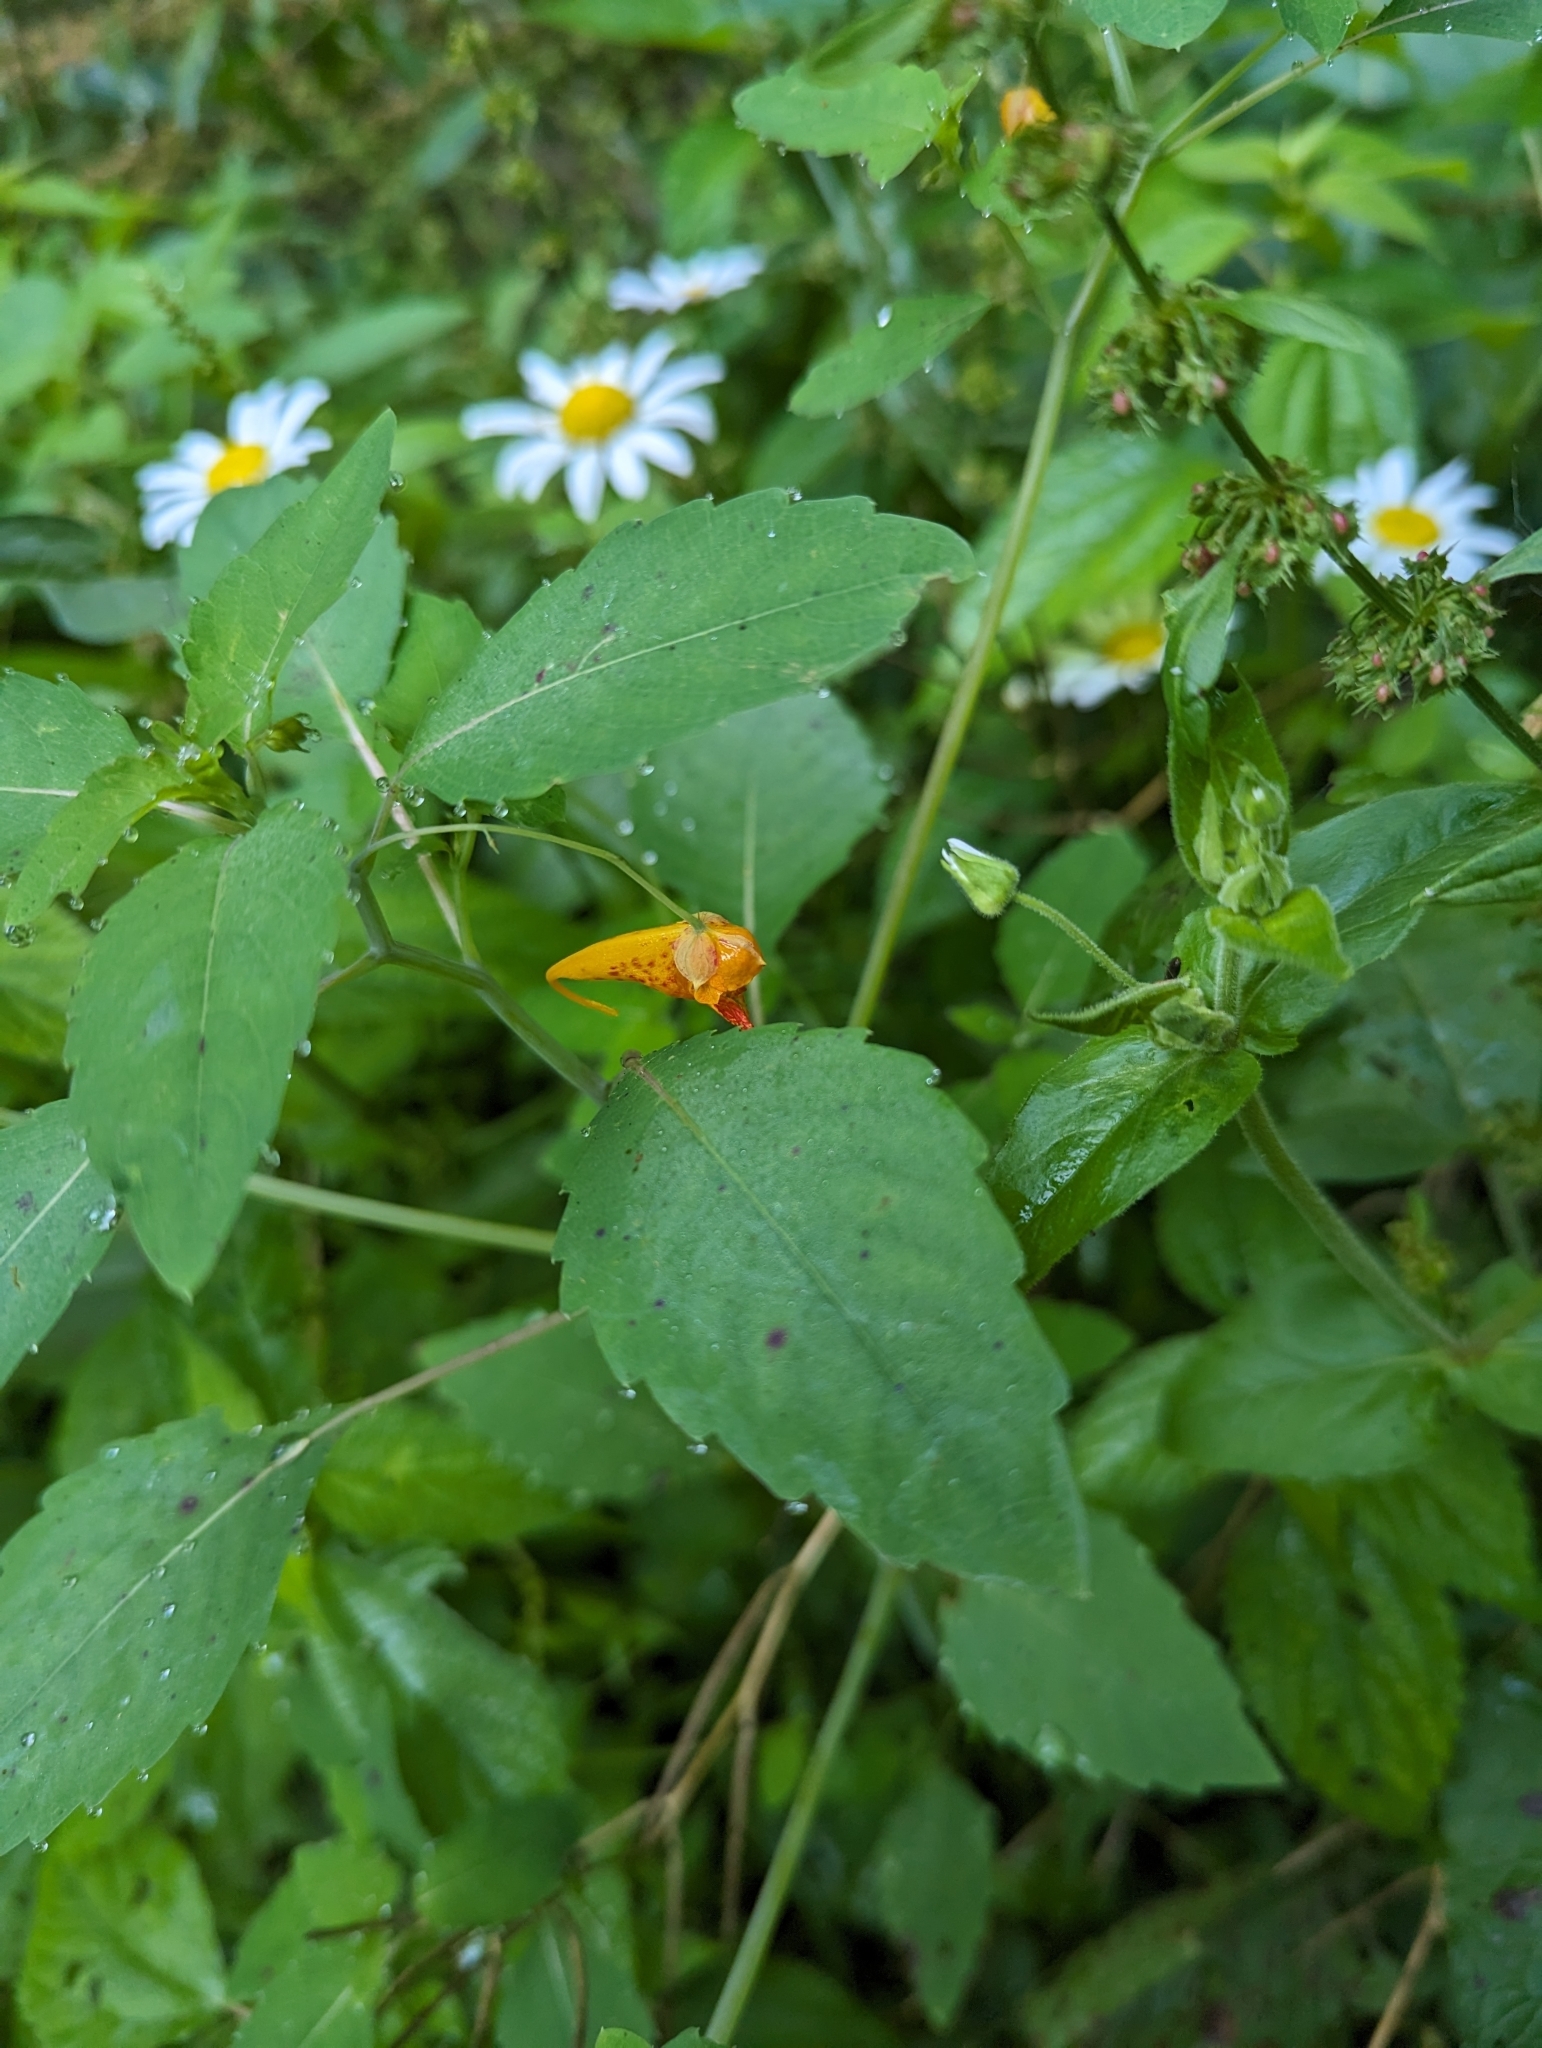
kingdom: Plantae
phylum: Tracheophyta
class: Magnoliopsida
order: Ericales
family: Balsaminaceae
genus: Impatiens
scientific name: Impatiens capensis
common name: Orange balsam
